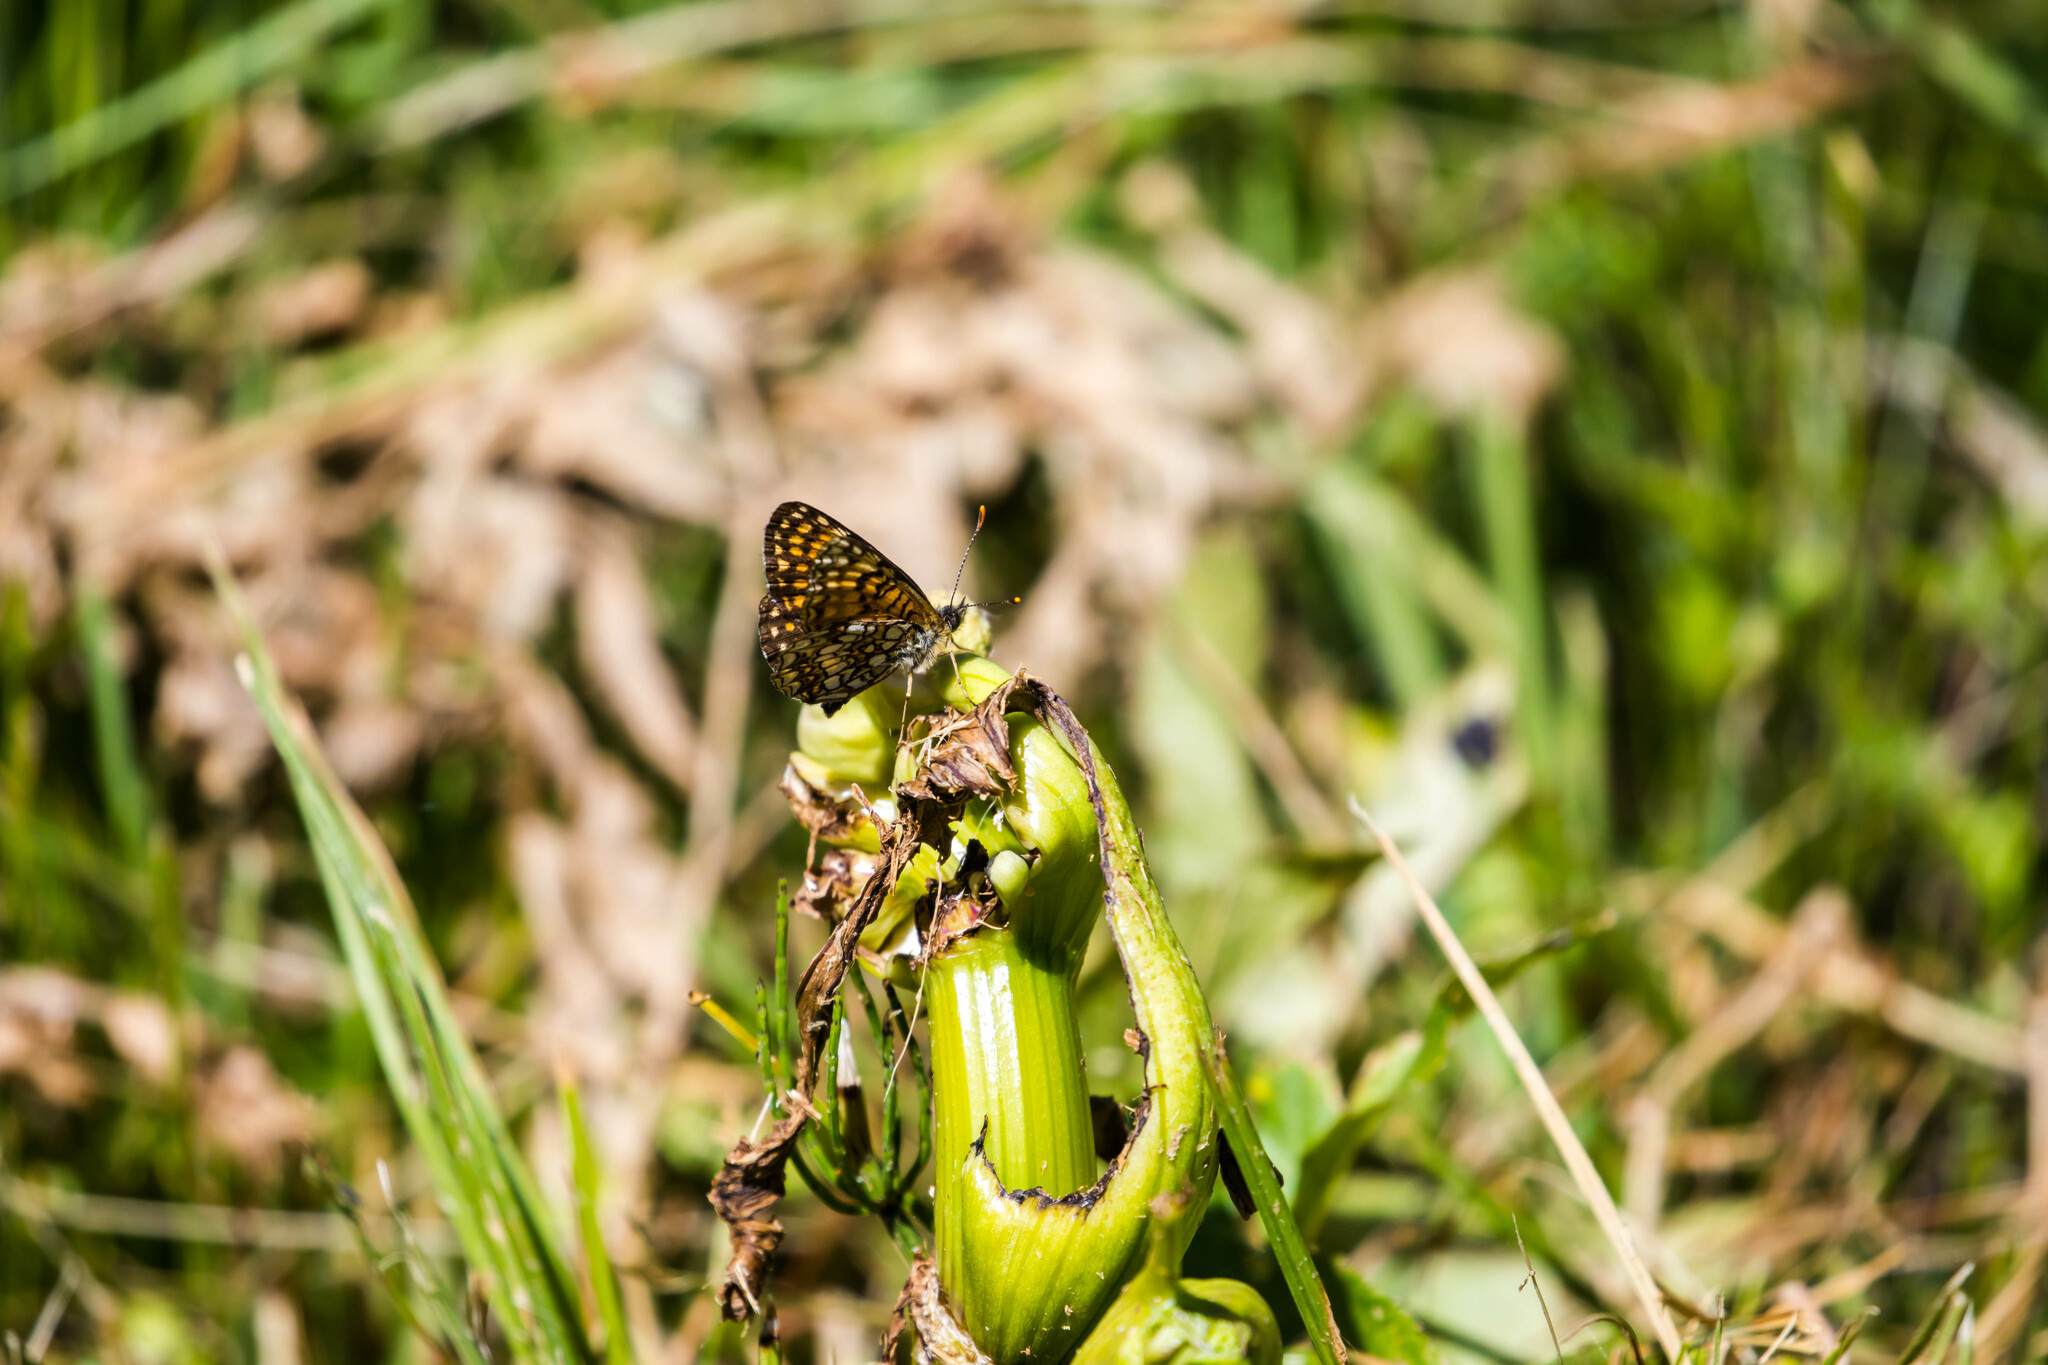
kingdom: Animalia
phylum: Arthropoda
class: Insecta
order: Lepidoptera
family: Nymphalidae
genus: Melitaea
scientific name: Melitaea diamina
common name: False heath fritillary
